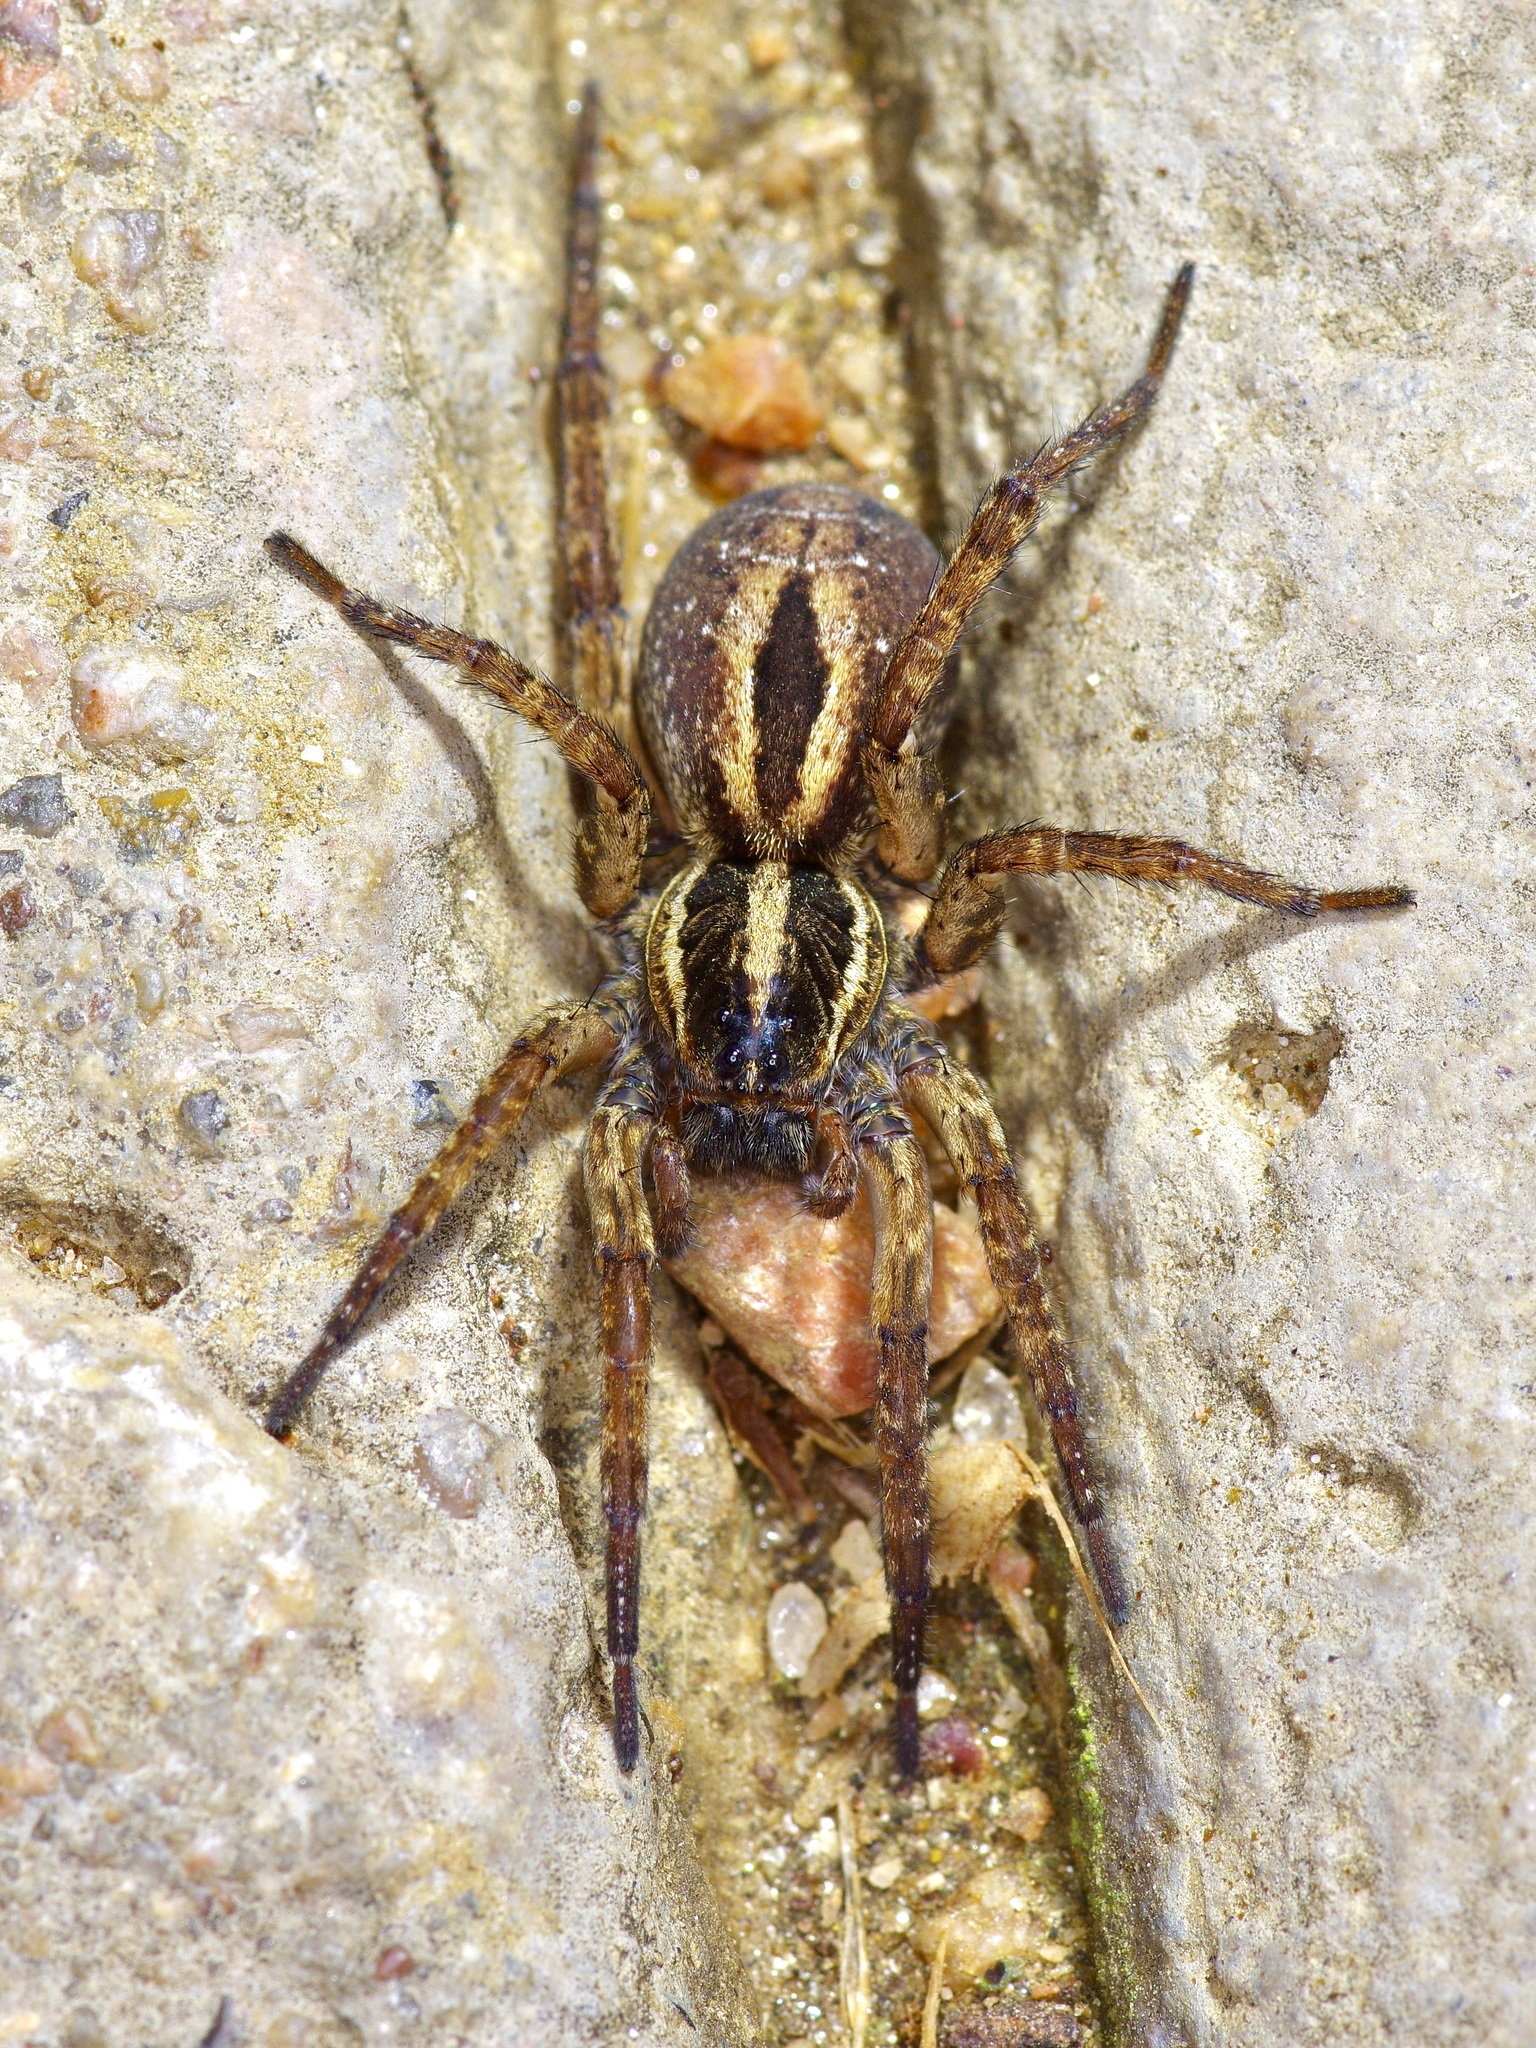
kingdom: Animalia
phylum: Arthropoda
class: Arachnida
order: Araneae
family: Lycosidae
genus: Tigrosa
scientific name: Tigrosa annexa
